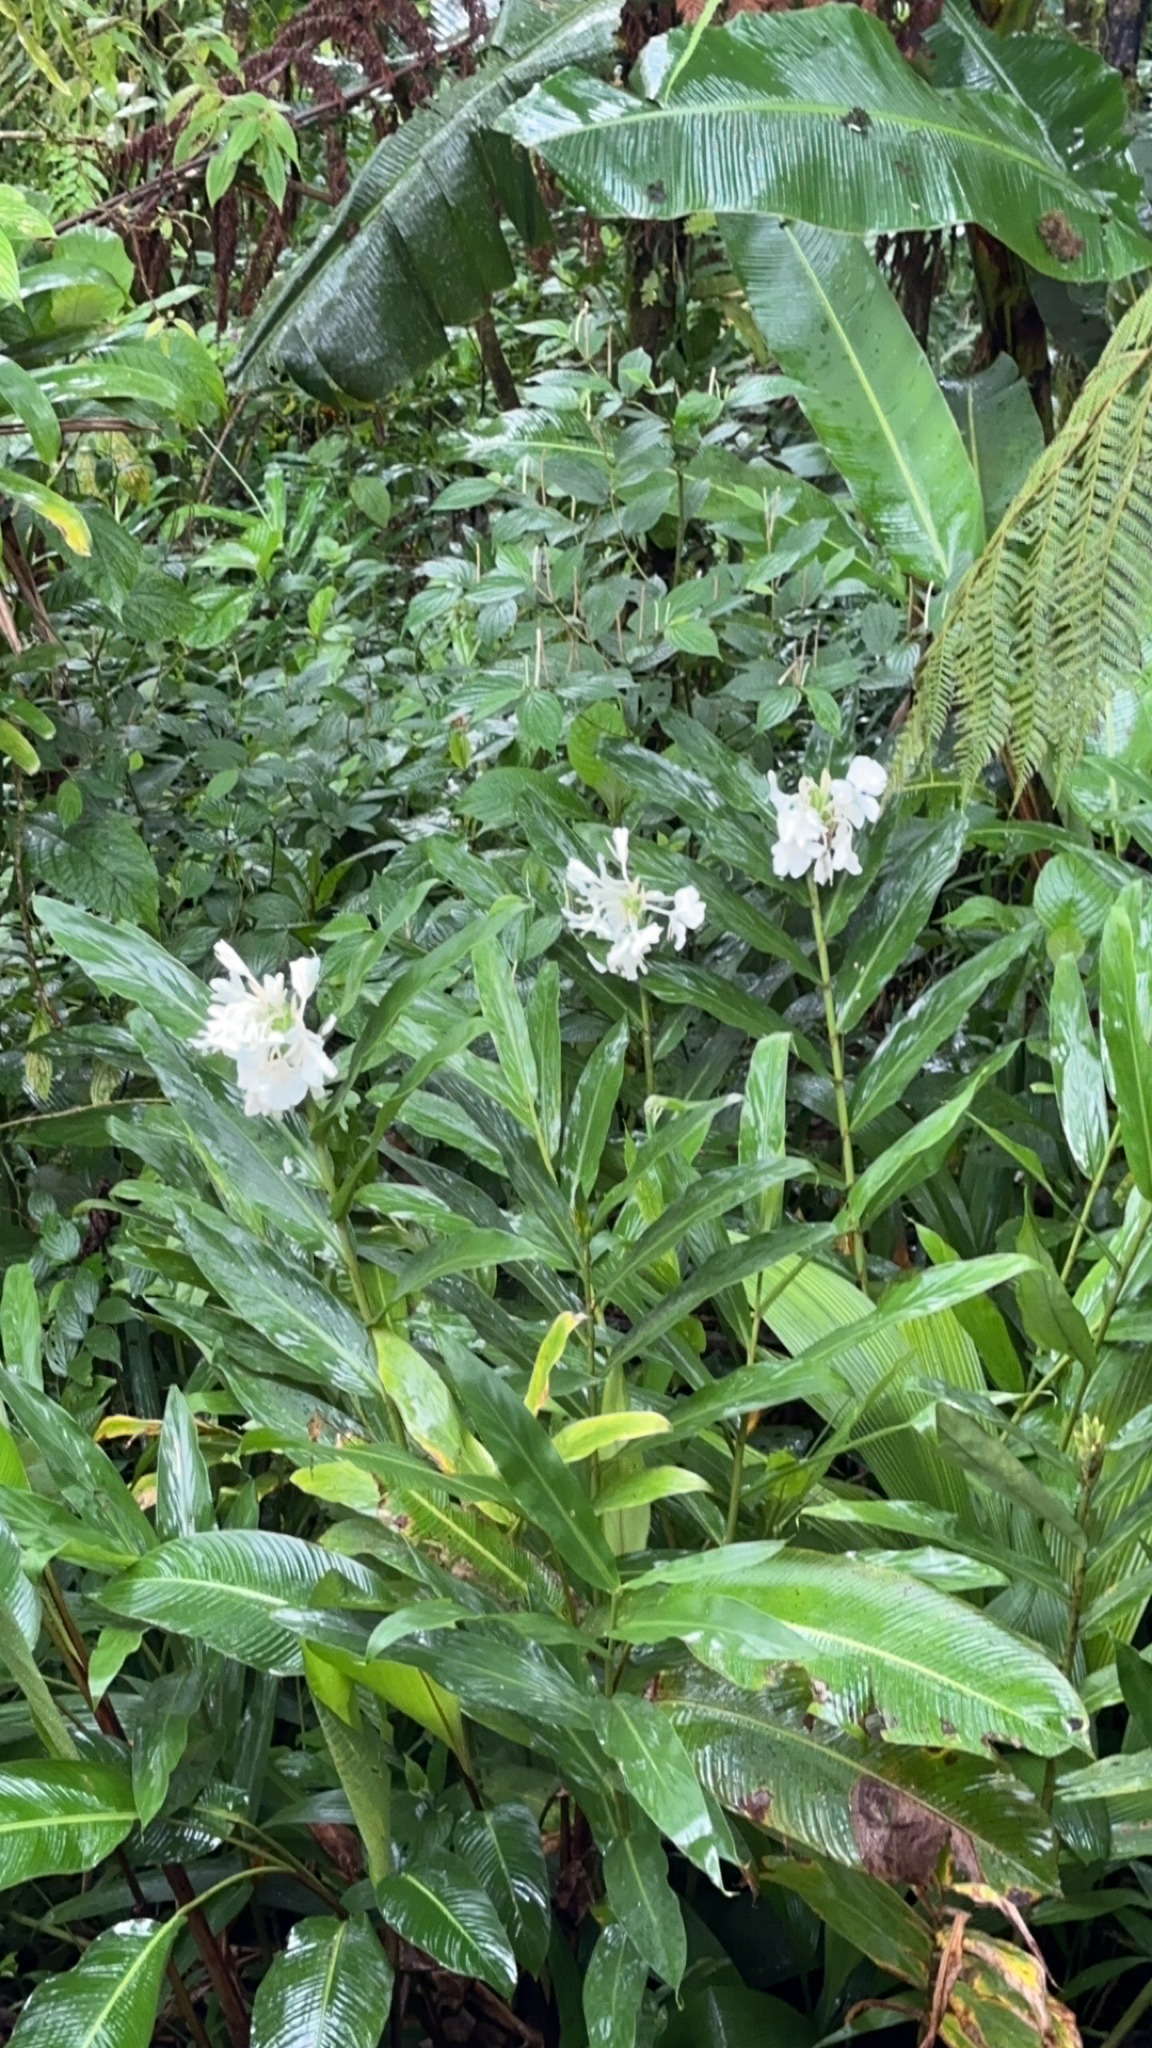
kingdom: Plantae
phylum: Tracheophyta
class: Liliopsida
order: Zingiberales
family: Zingiberaceae
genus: Hedychium
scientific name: Hedychium coronarium
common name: White garland-lily
